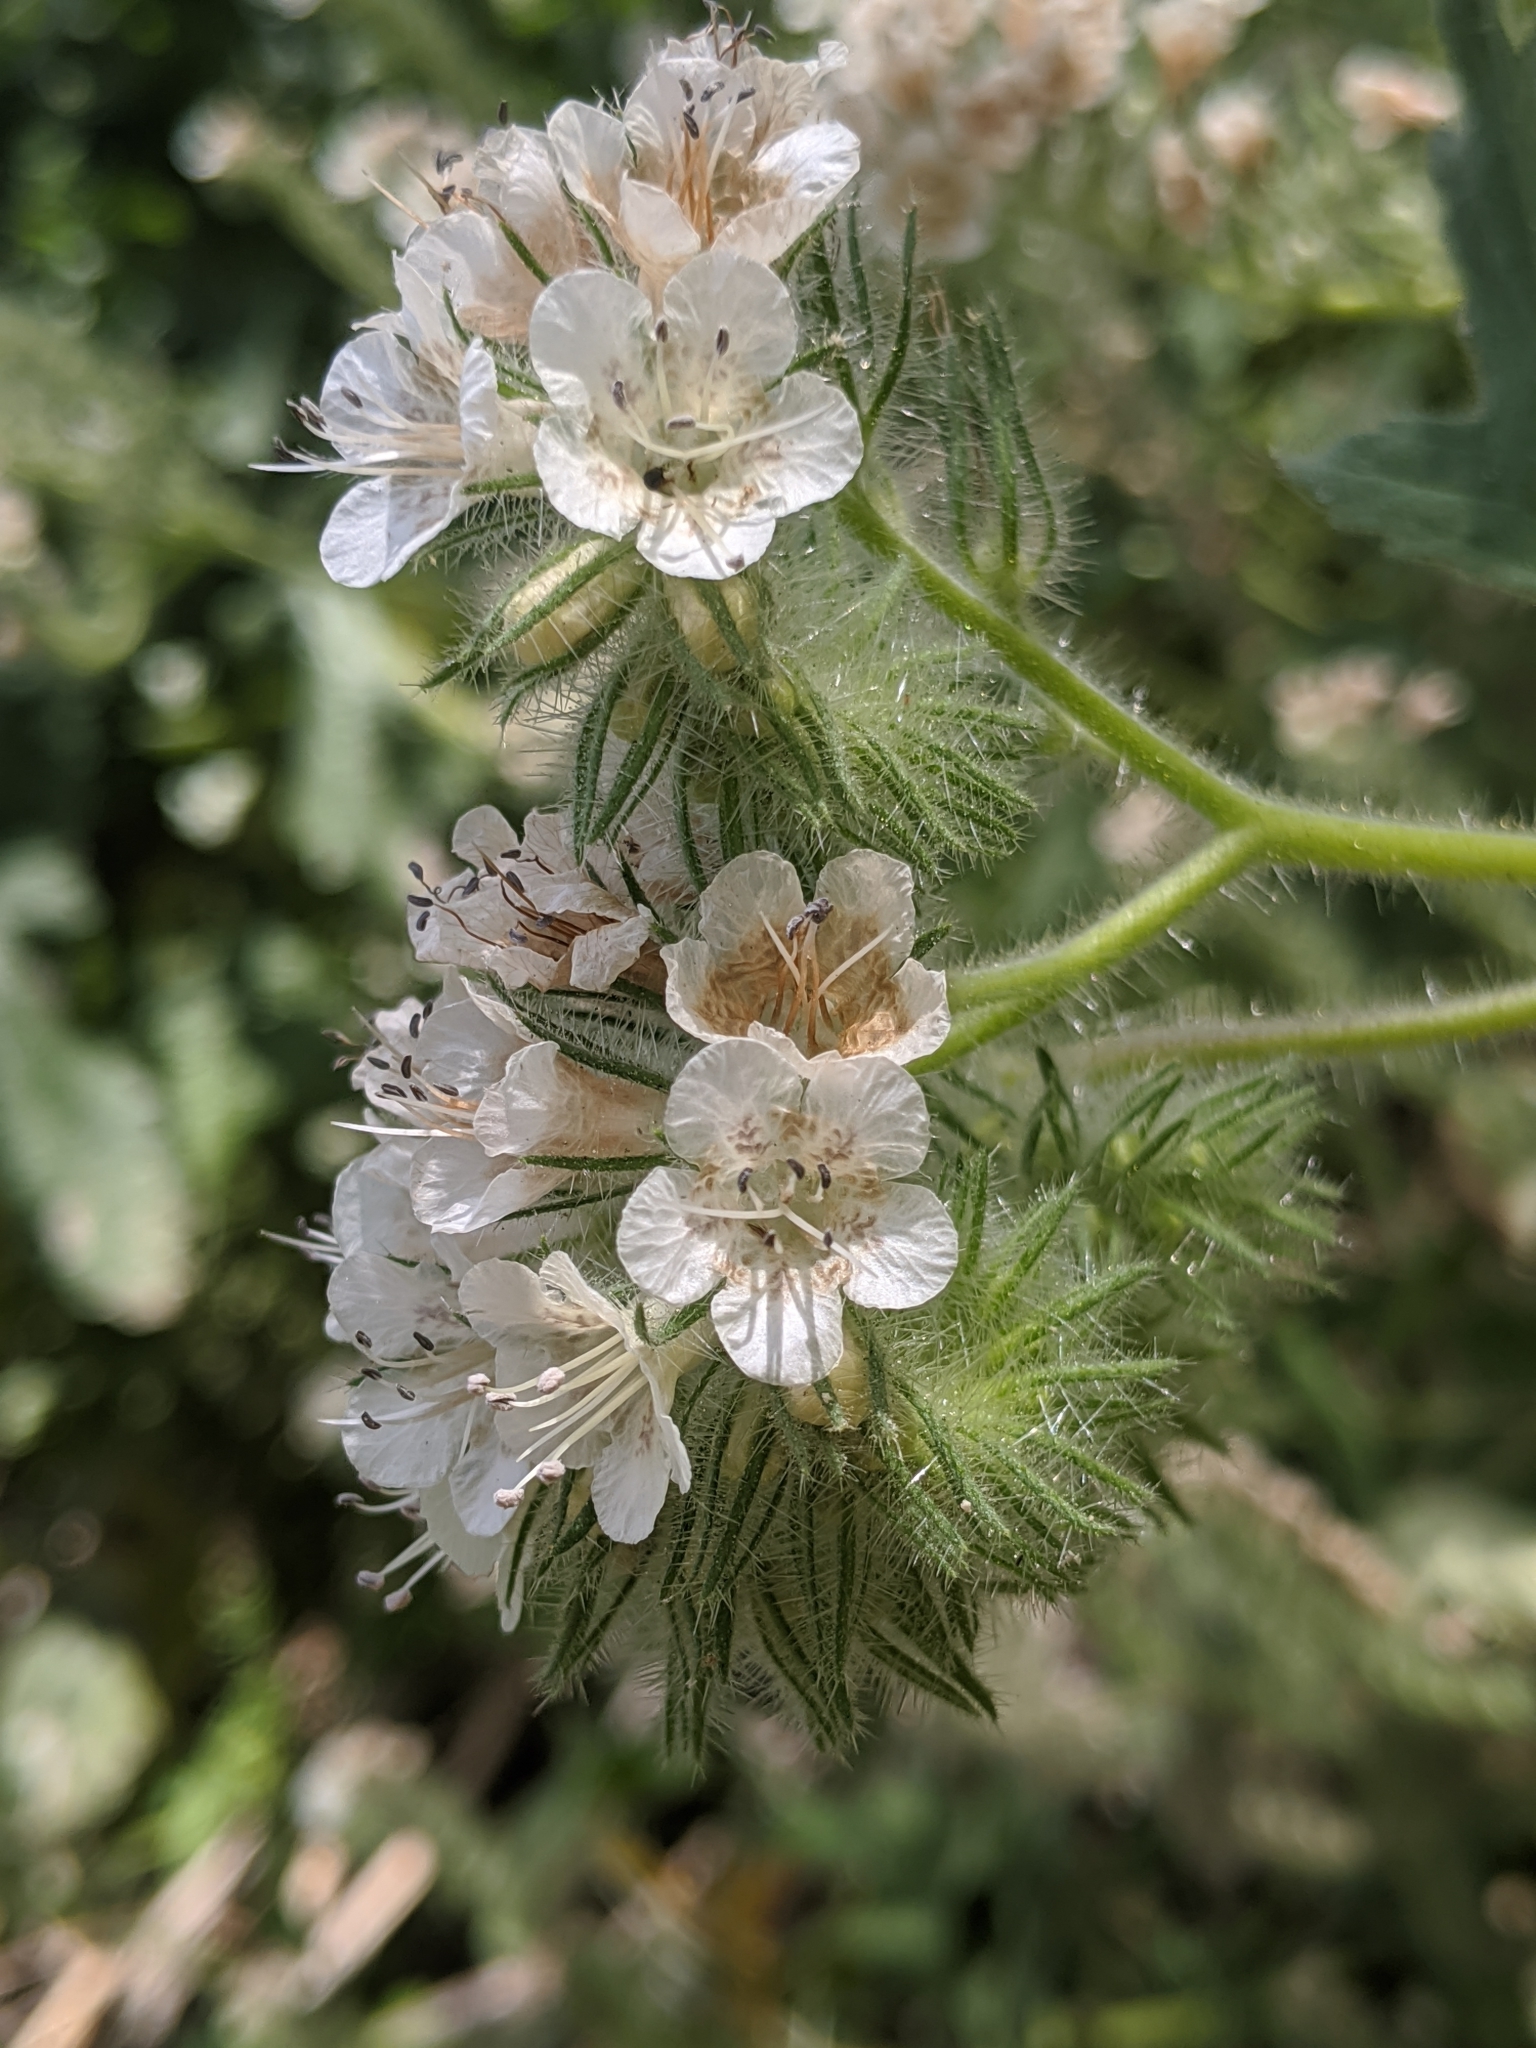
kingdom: Plantae
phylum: Tracheophyta
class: Magnoliopsida
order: Boraginales
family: Hydrophyllaceae
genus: Phacelia
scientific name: Phacelia cicutaria
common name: Caterpillar phacelia
